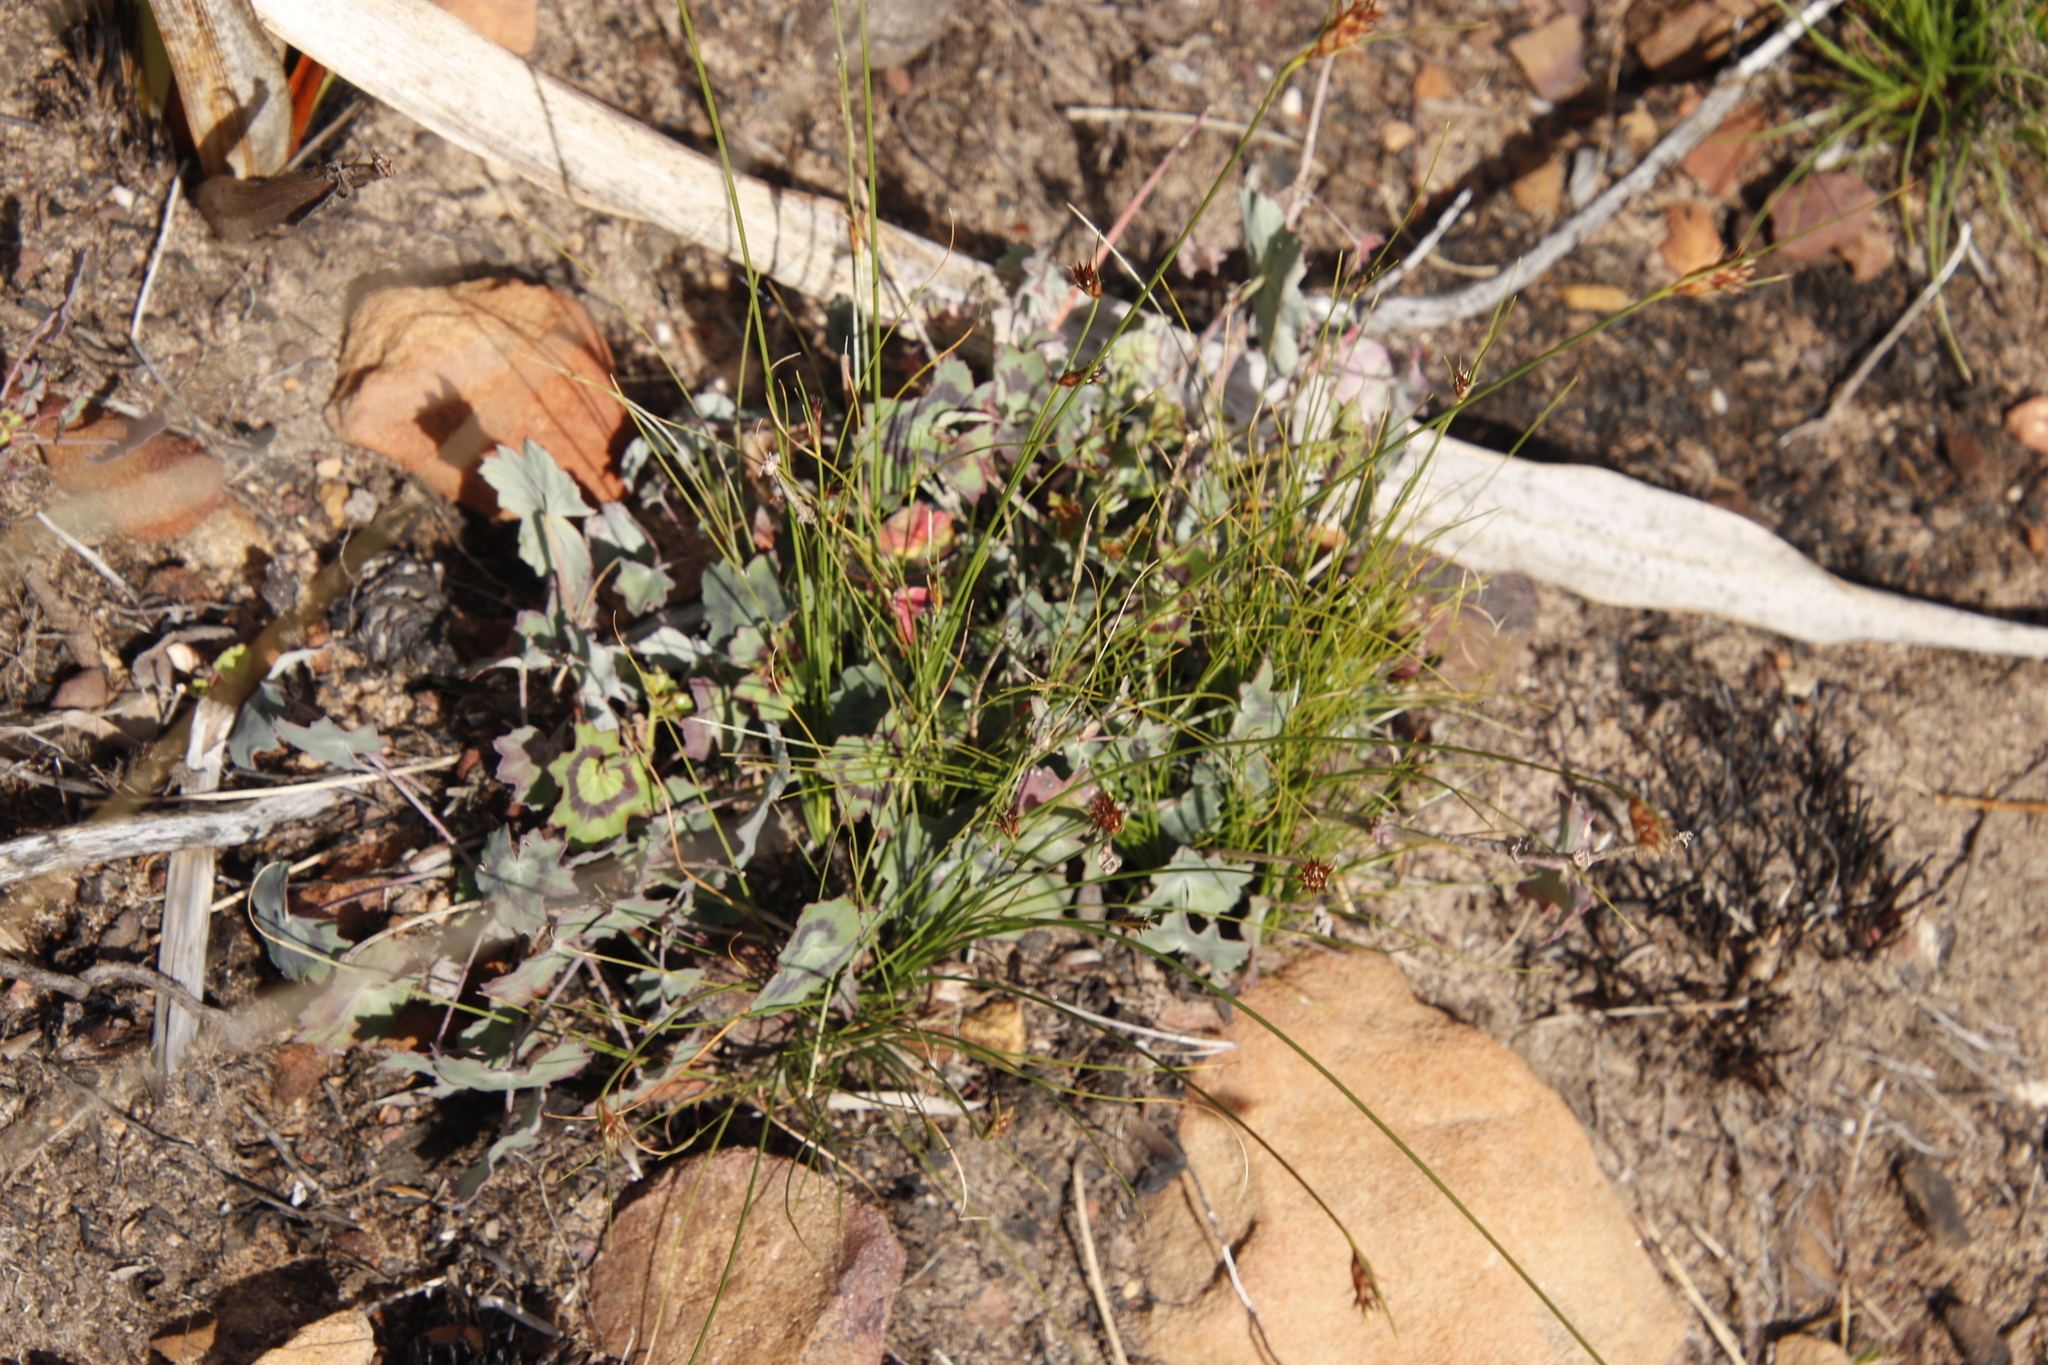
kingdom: Plantae
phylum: Tracheophyta
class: Magnoliopsida
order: Geraniales
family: Geraniaceae
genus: Pelargonium
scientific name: Pelargonium tabulare
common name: Table mountain pelargonium
